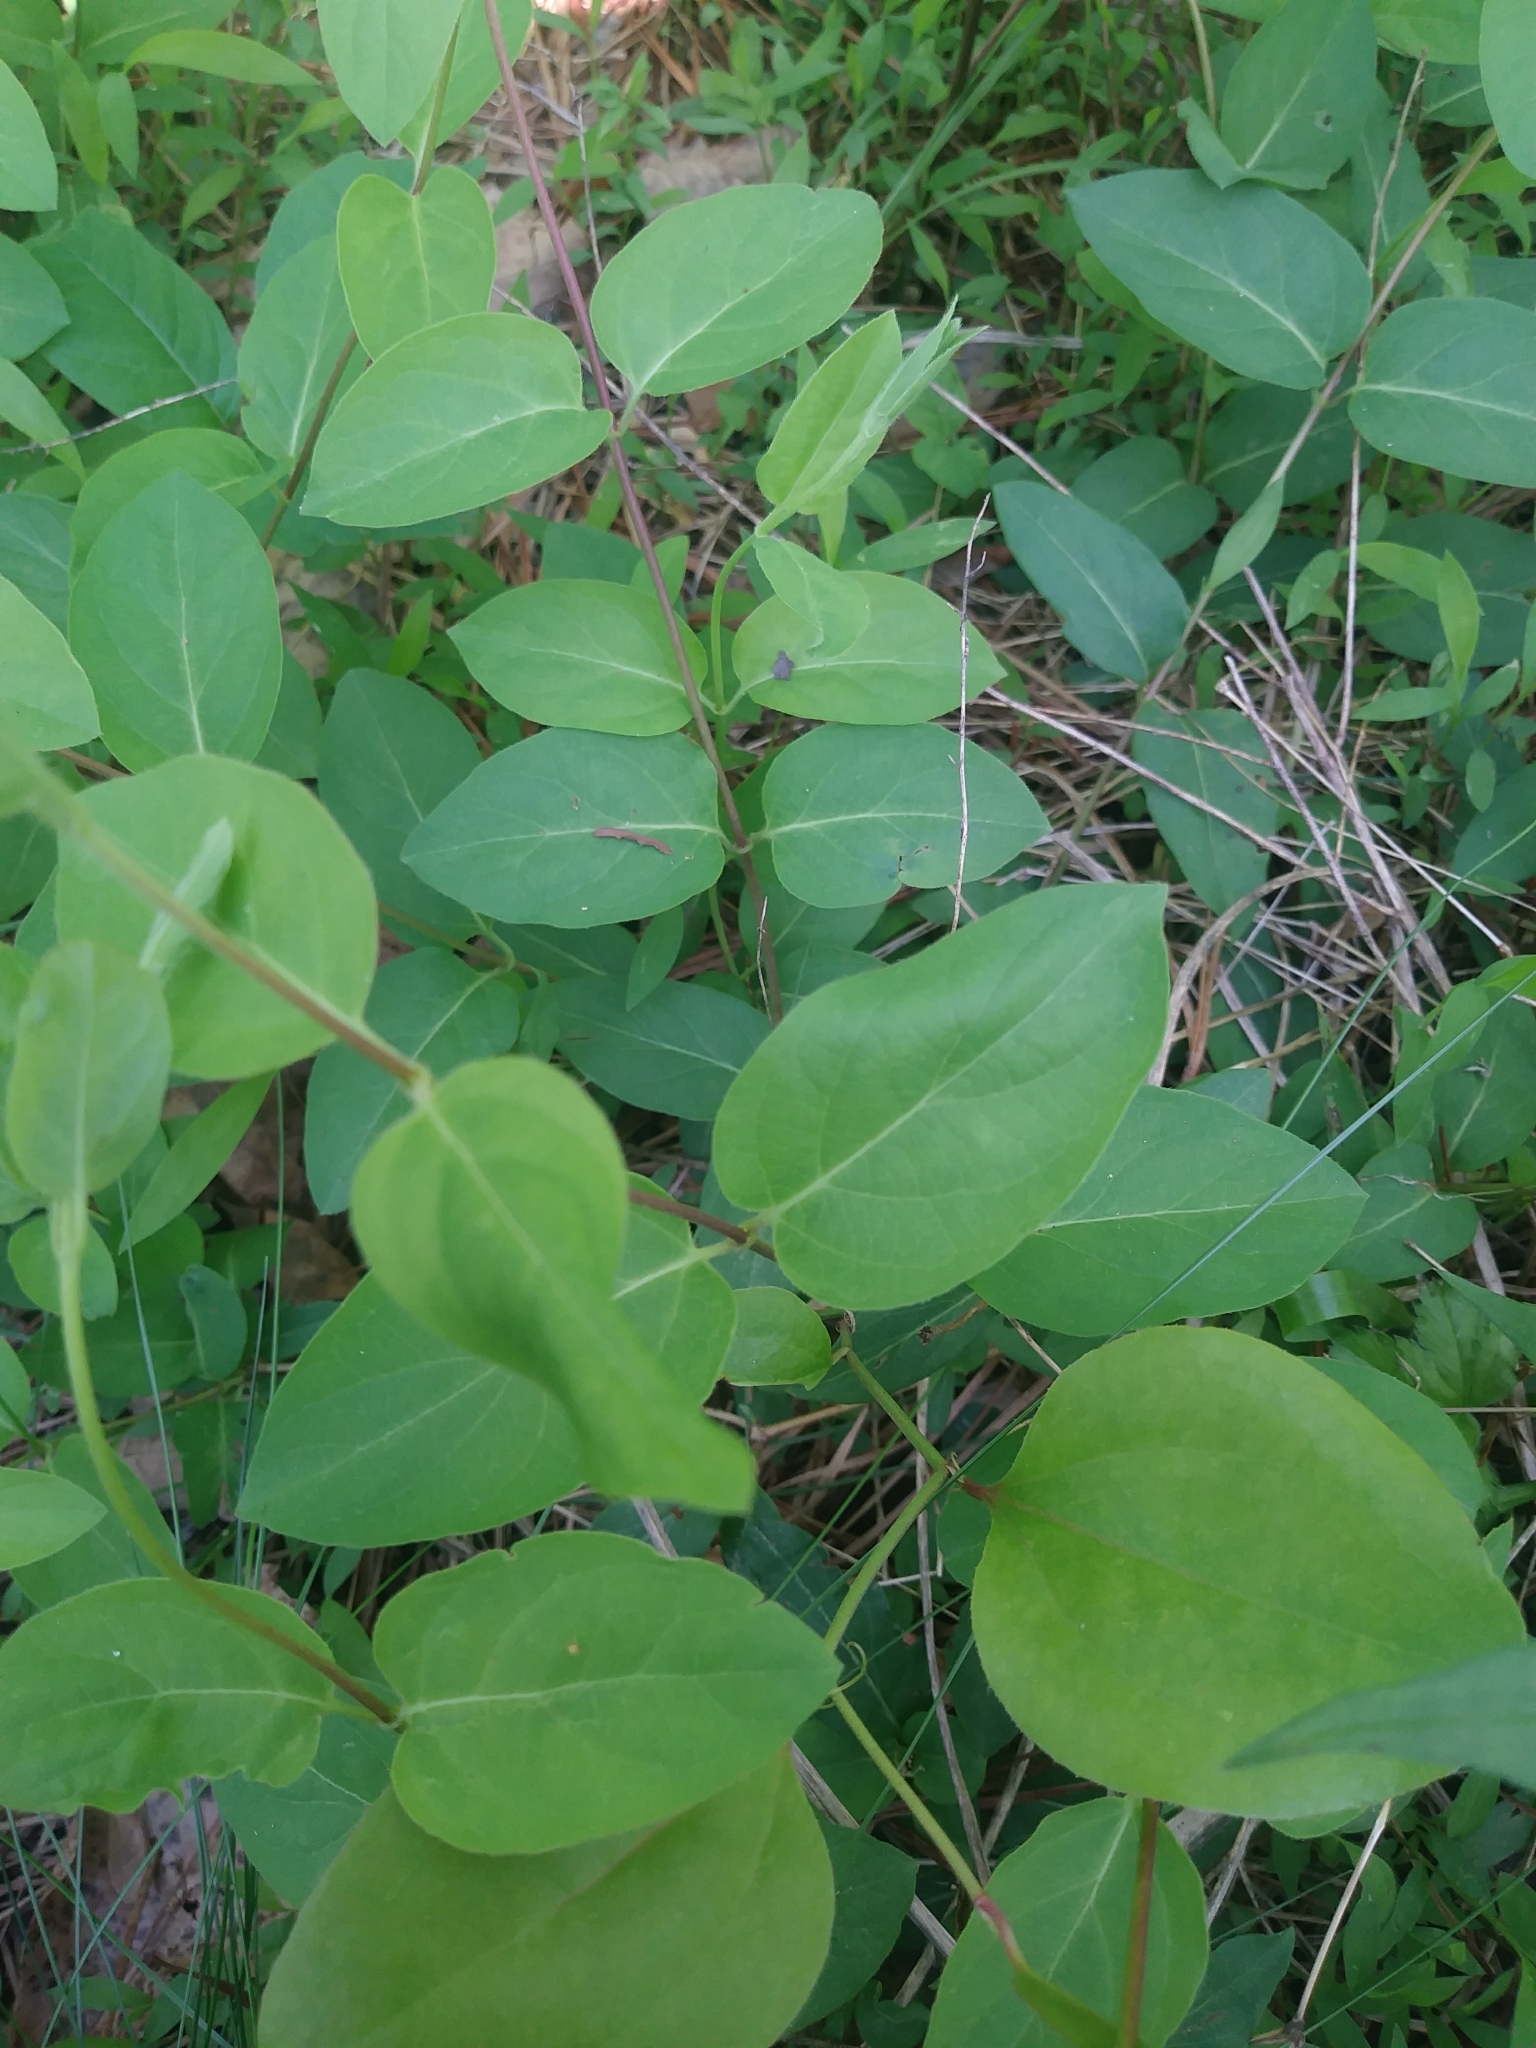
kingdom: Plantae
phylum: Tracheophyta
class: Magnoliopsida
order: Dipsacales
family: Caprifoliaceae
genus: Lonicera
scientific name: Lonicera japonica
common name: Japanese honeysuckle
